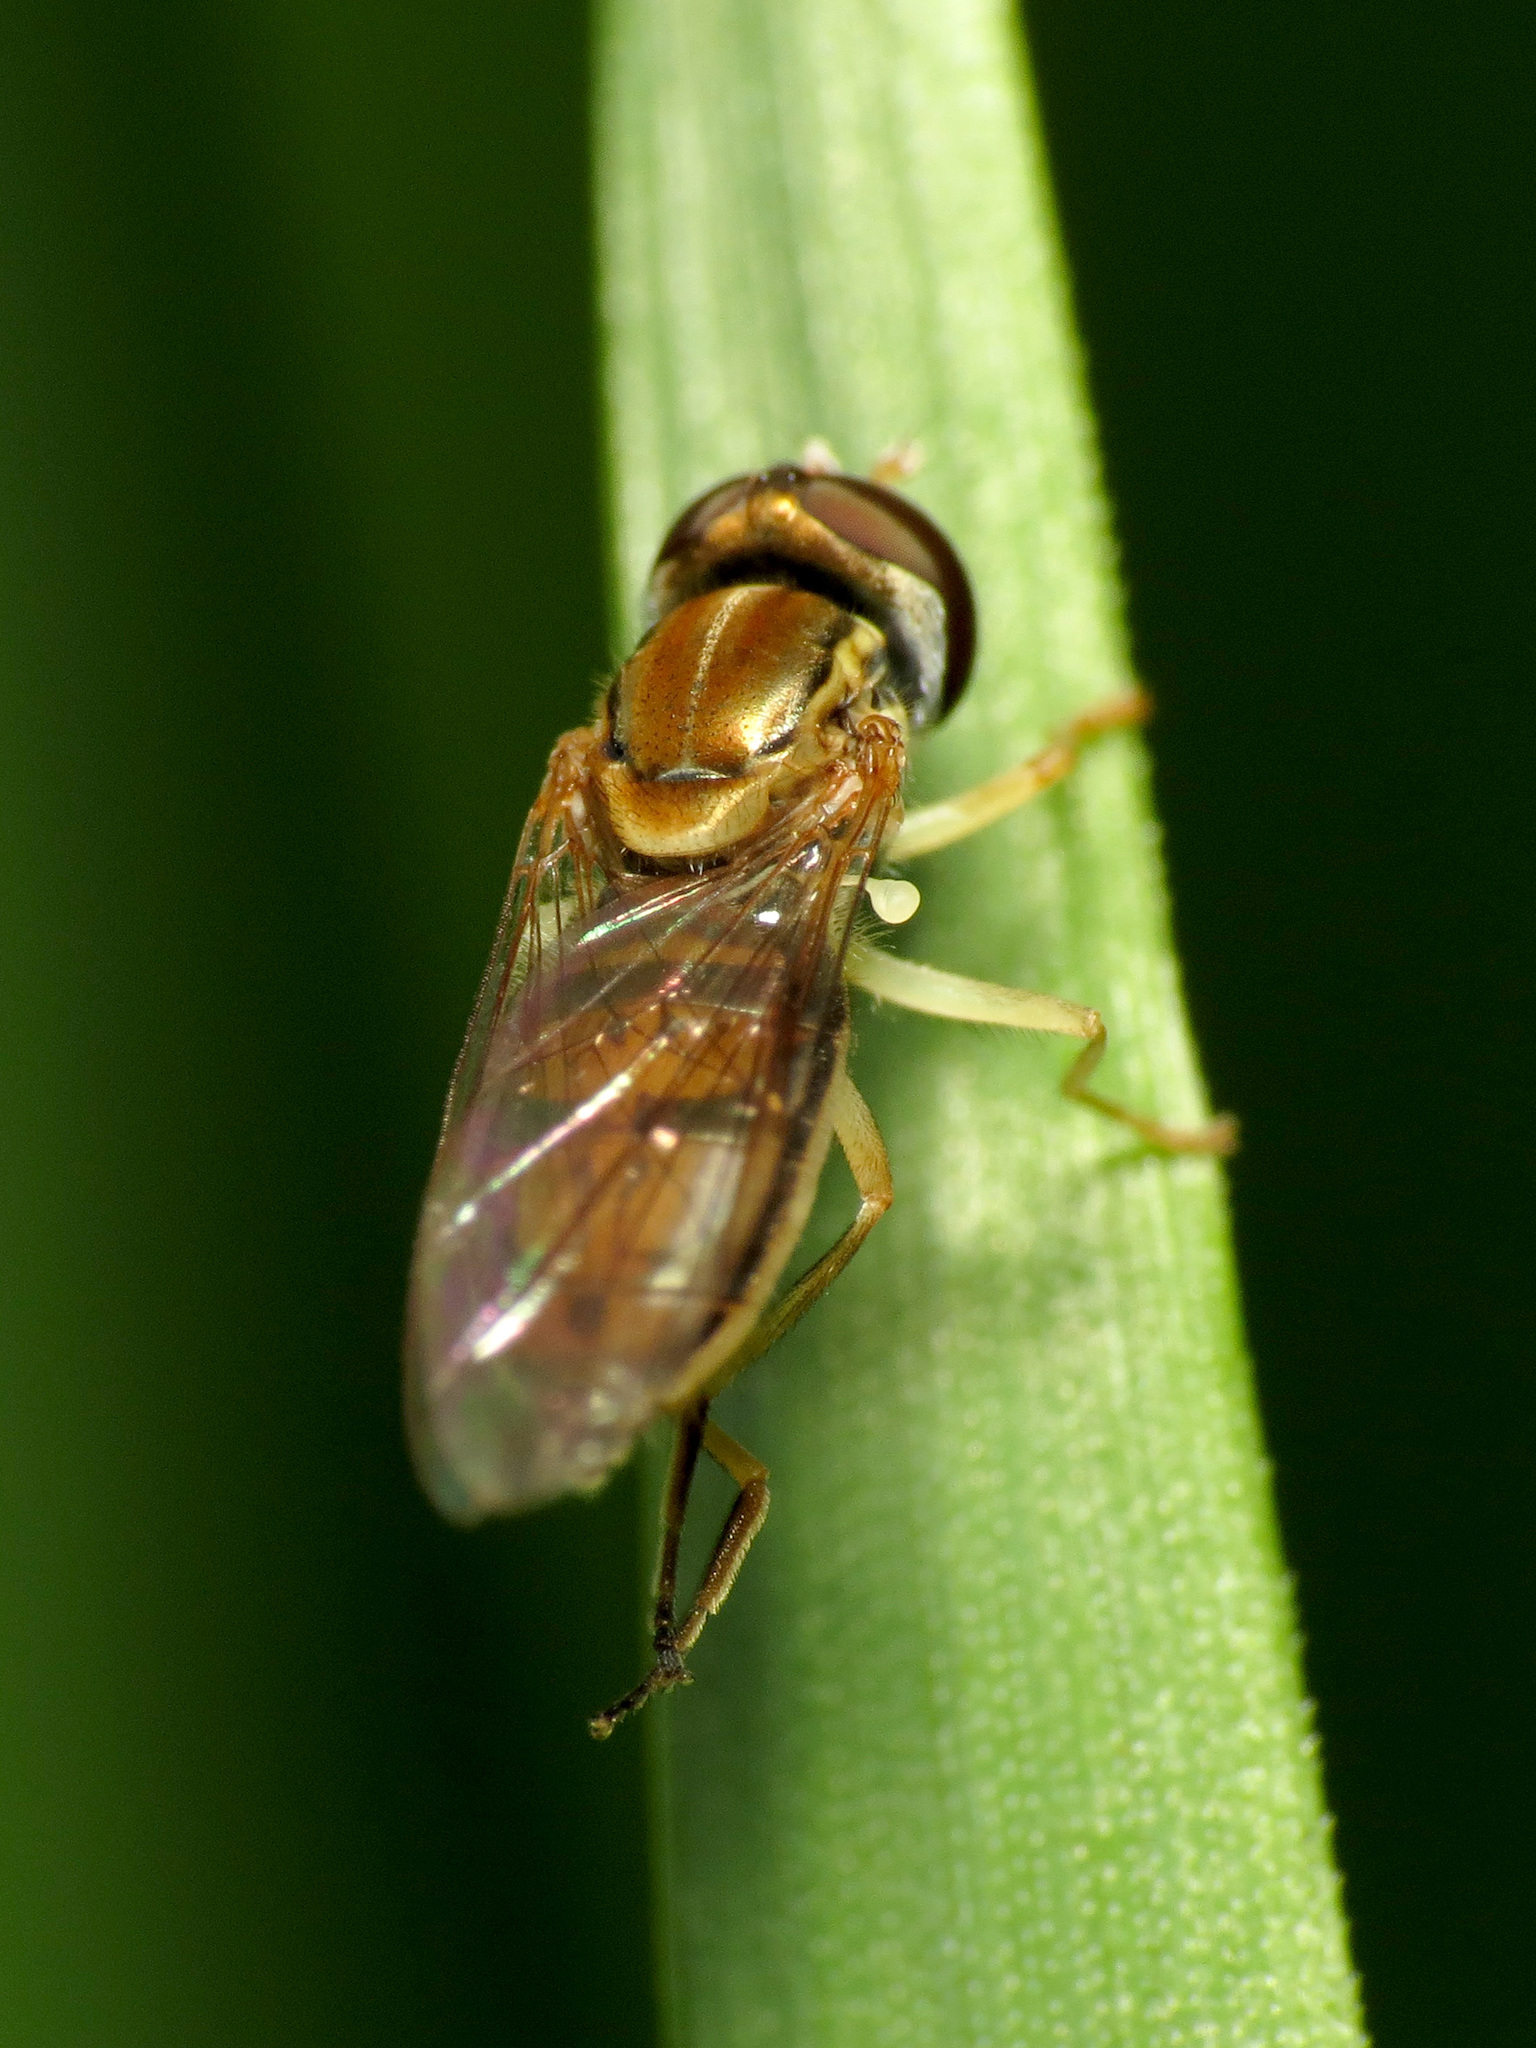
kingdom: Animalia
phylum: Arthropoda
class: Insecta
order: Diptera
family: Syrphidae
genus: Toxomerus
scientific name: Toxomerus marginatus
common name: Syrphid fly
